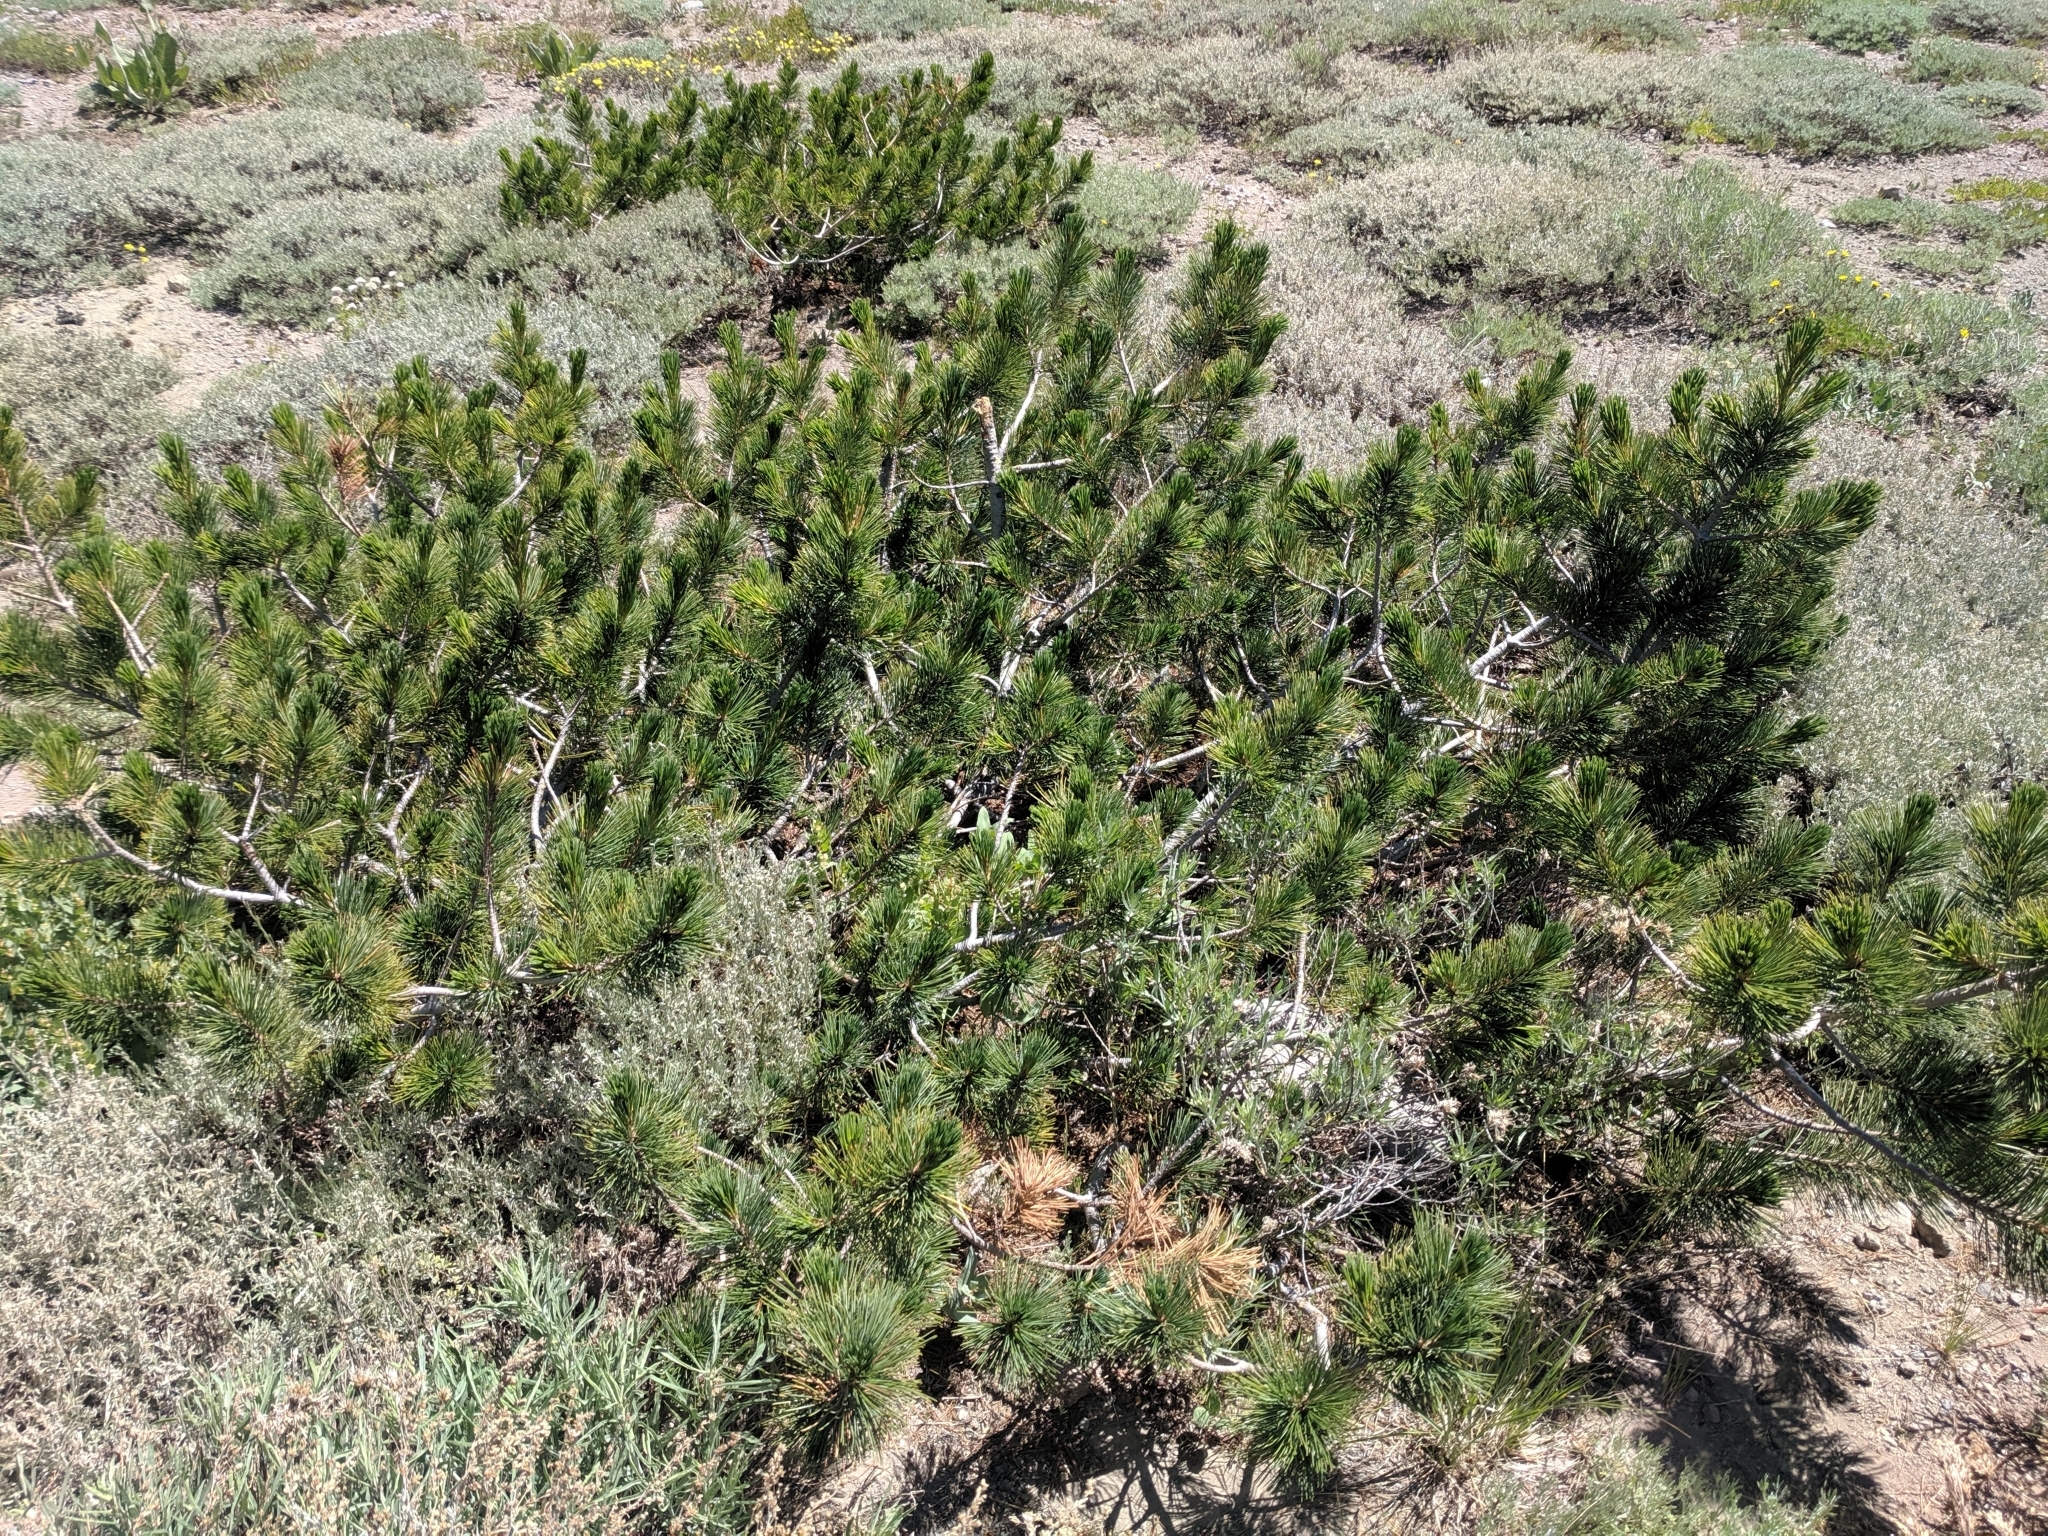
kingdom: Plantae
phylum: Tracheophyta
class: Pinopsida
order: Pinales
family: Pinaceae
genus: Pinus
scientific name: Pinus contorta
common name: Lodgepole pine
